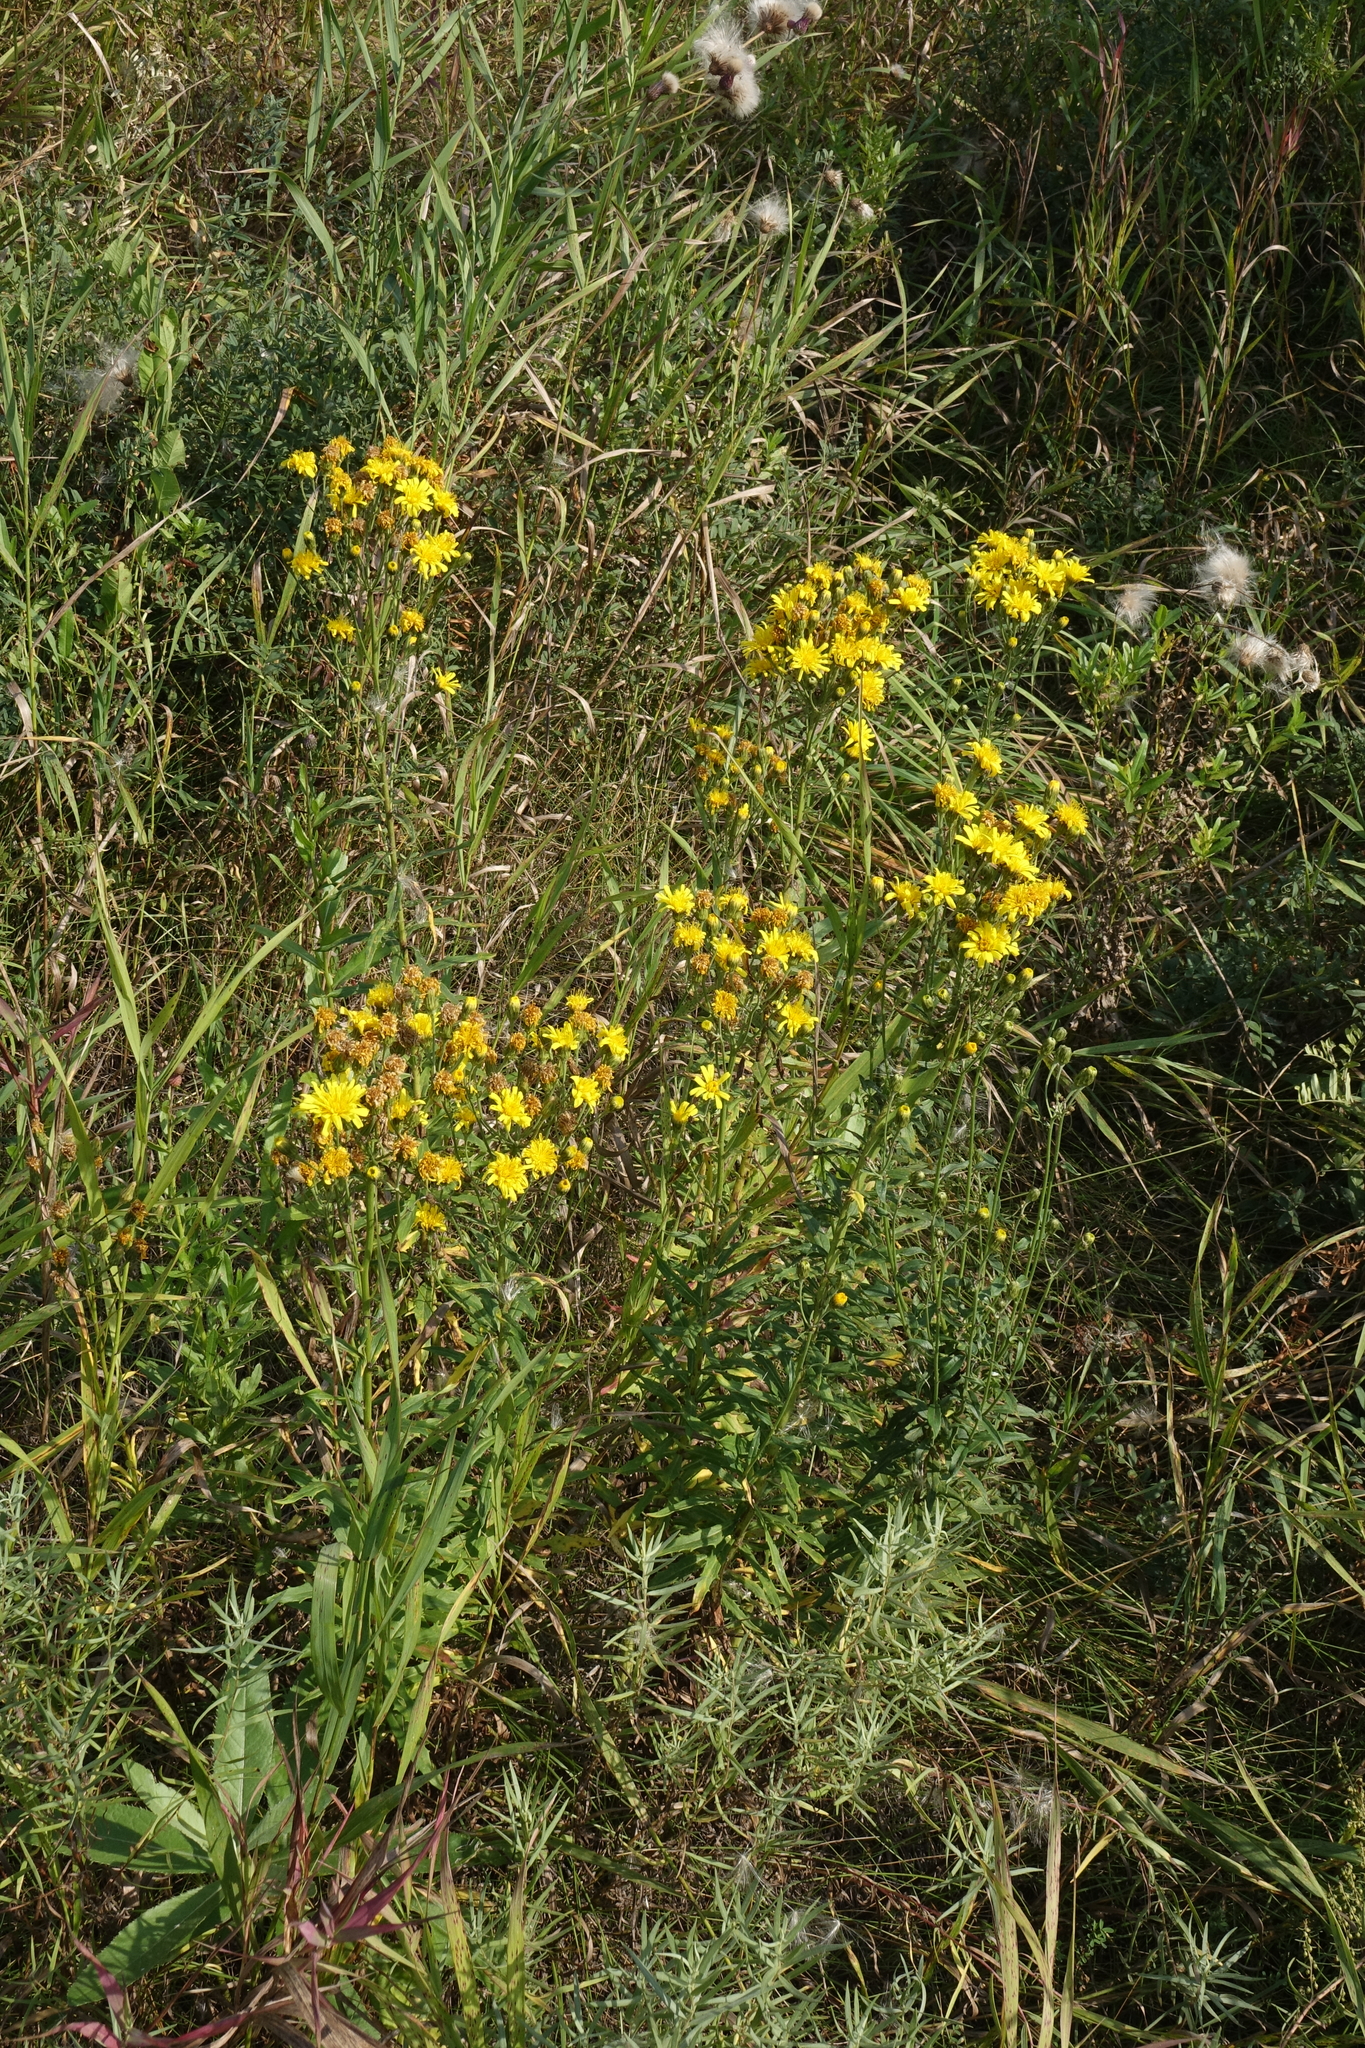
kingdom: Plantae
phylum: Tracheophyta
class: Magnoliopsida
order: Asterales
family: Asteraceae
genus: Hieracium
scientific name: Hieracium umbellatum
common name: Northern hawkweed
